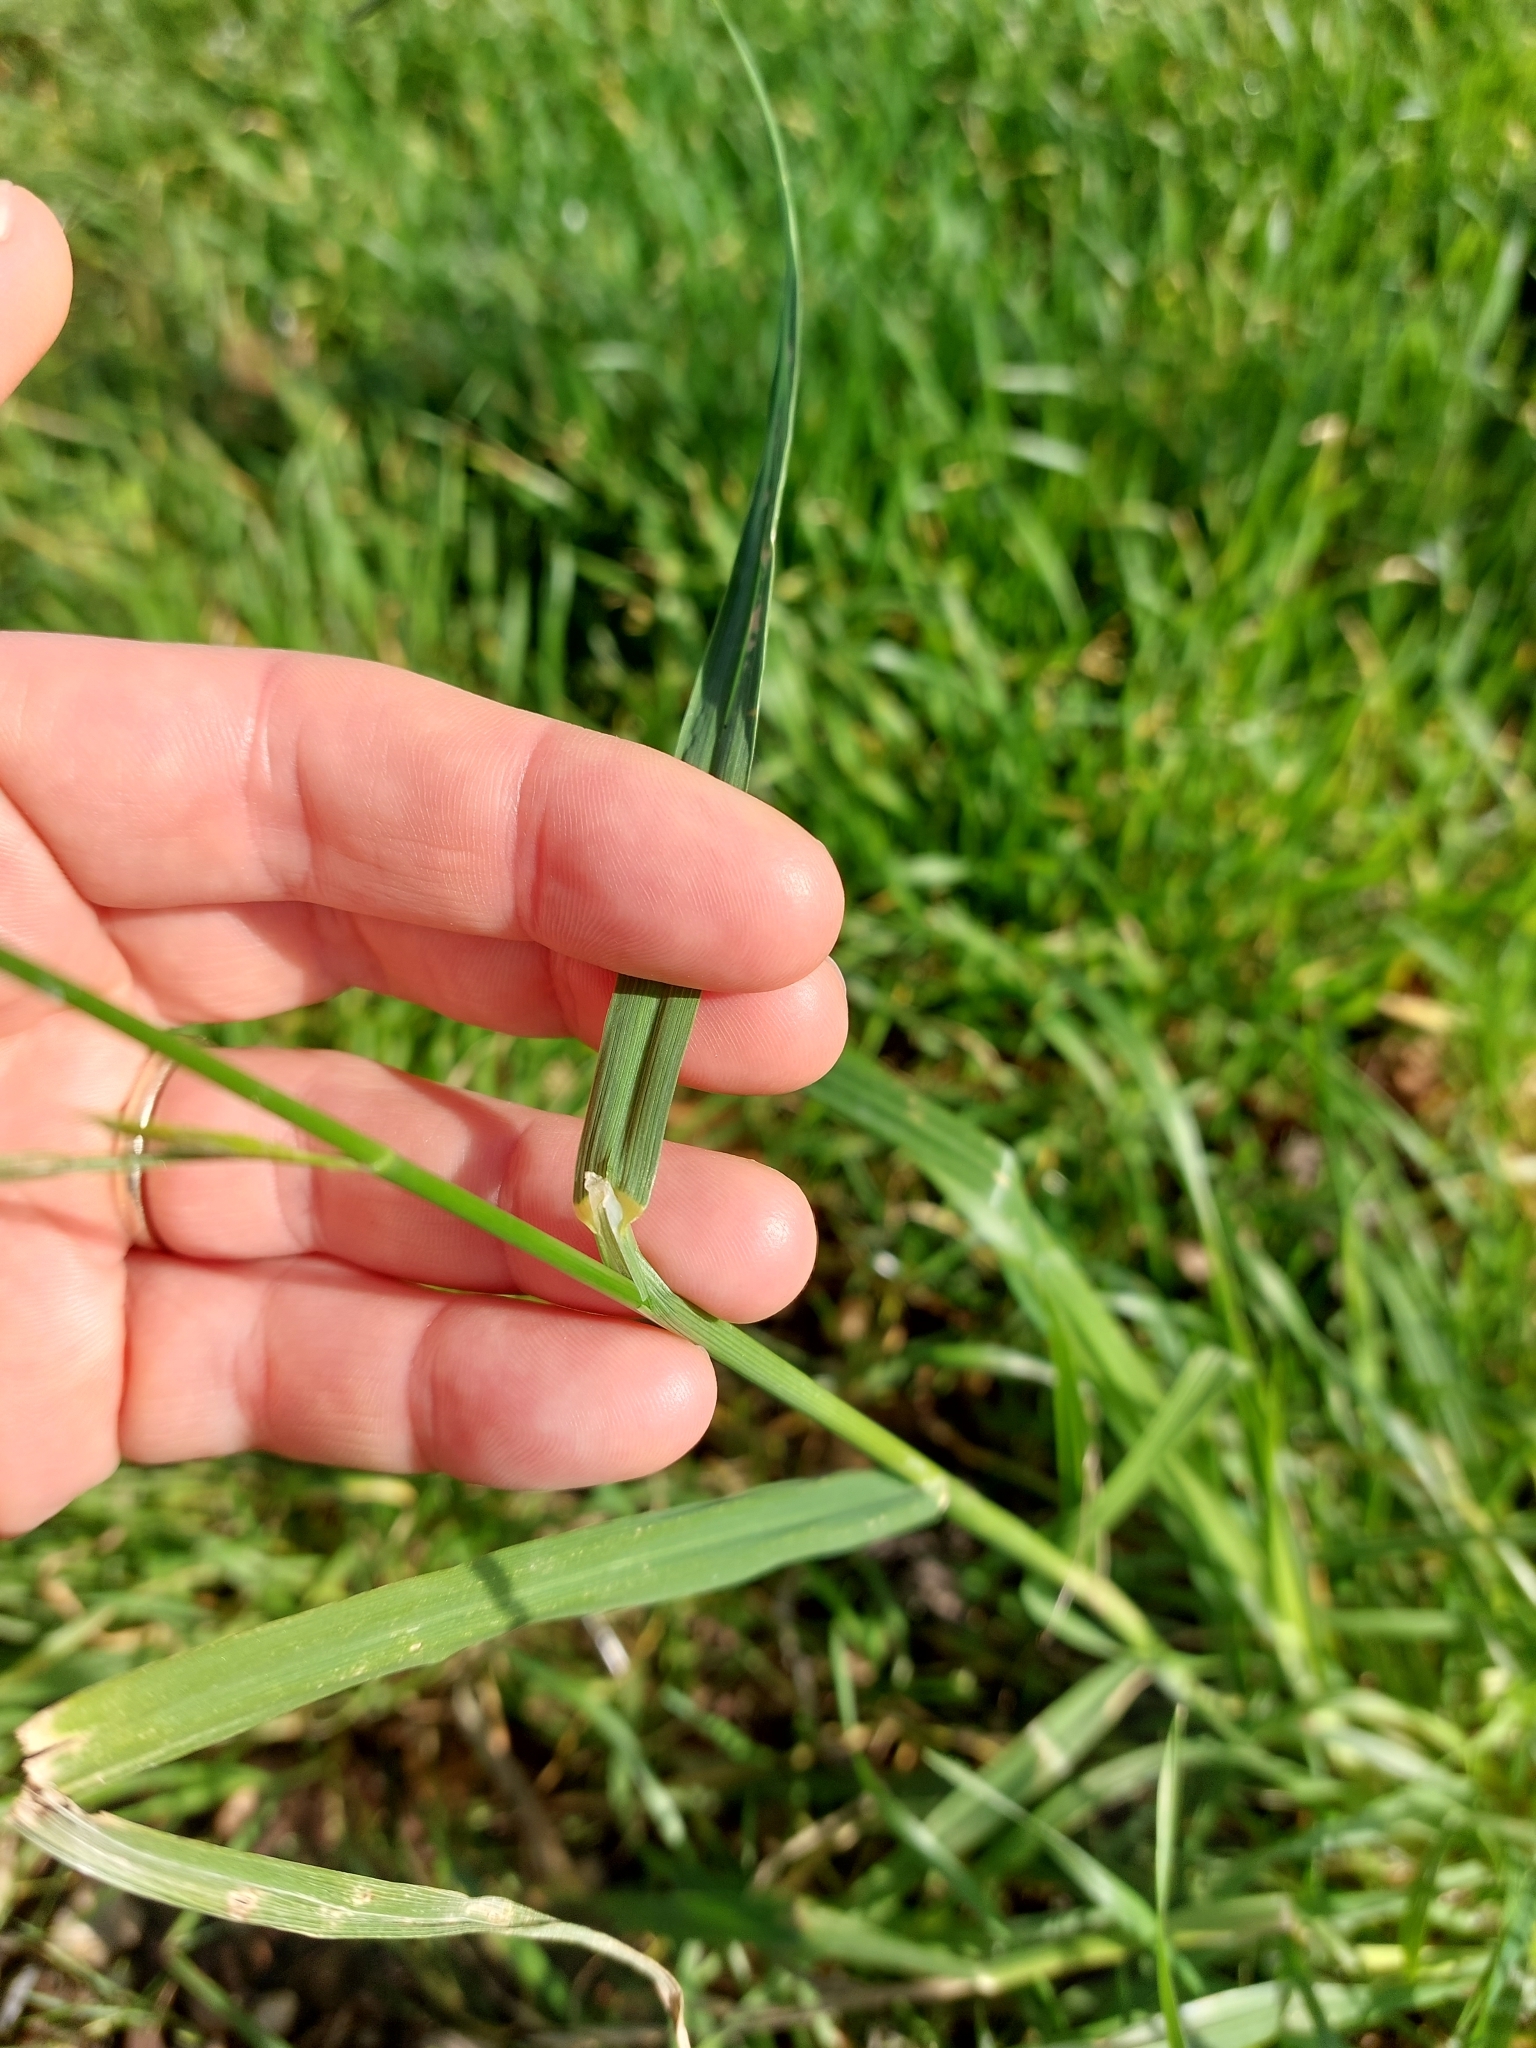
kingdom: Plantae
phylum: Tracheophyta
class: Liliopsida
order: Poales
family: Poaceae
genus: Bromus
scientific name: Bromus catharticus
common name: Rescuegrass
